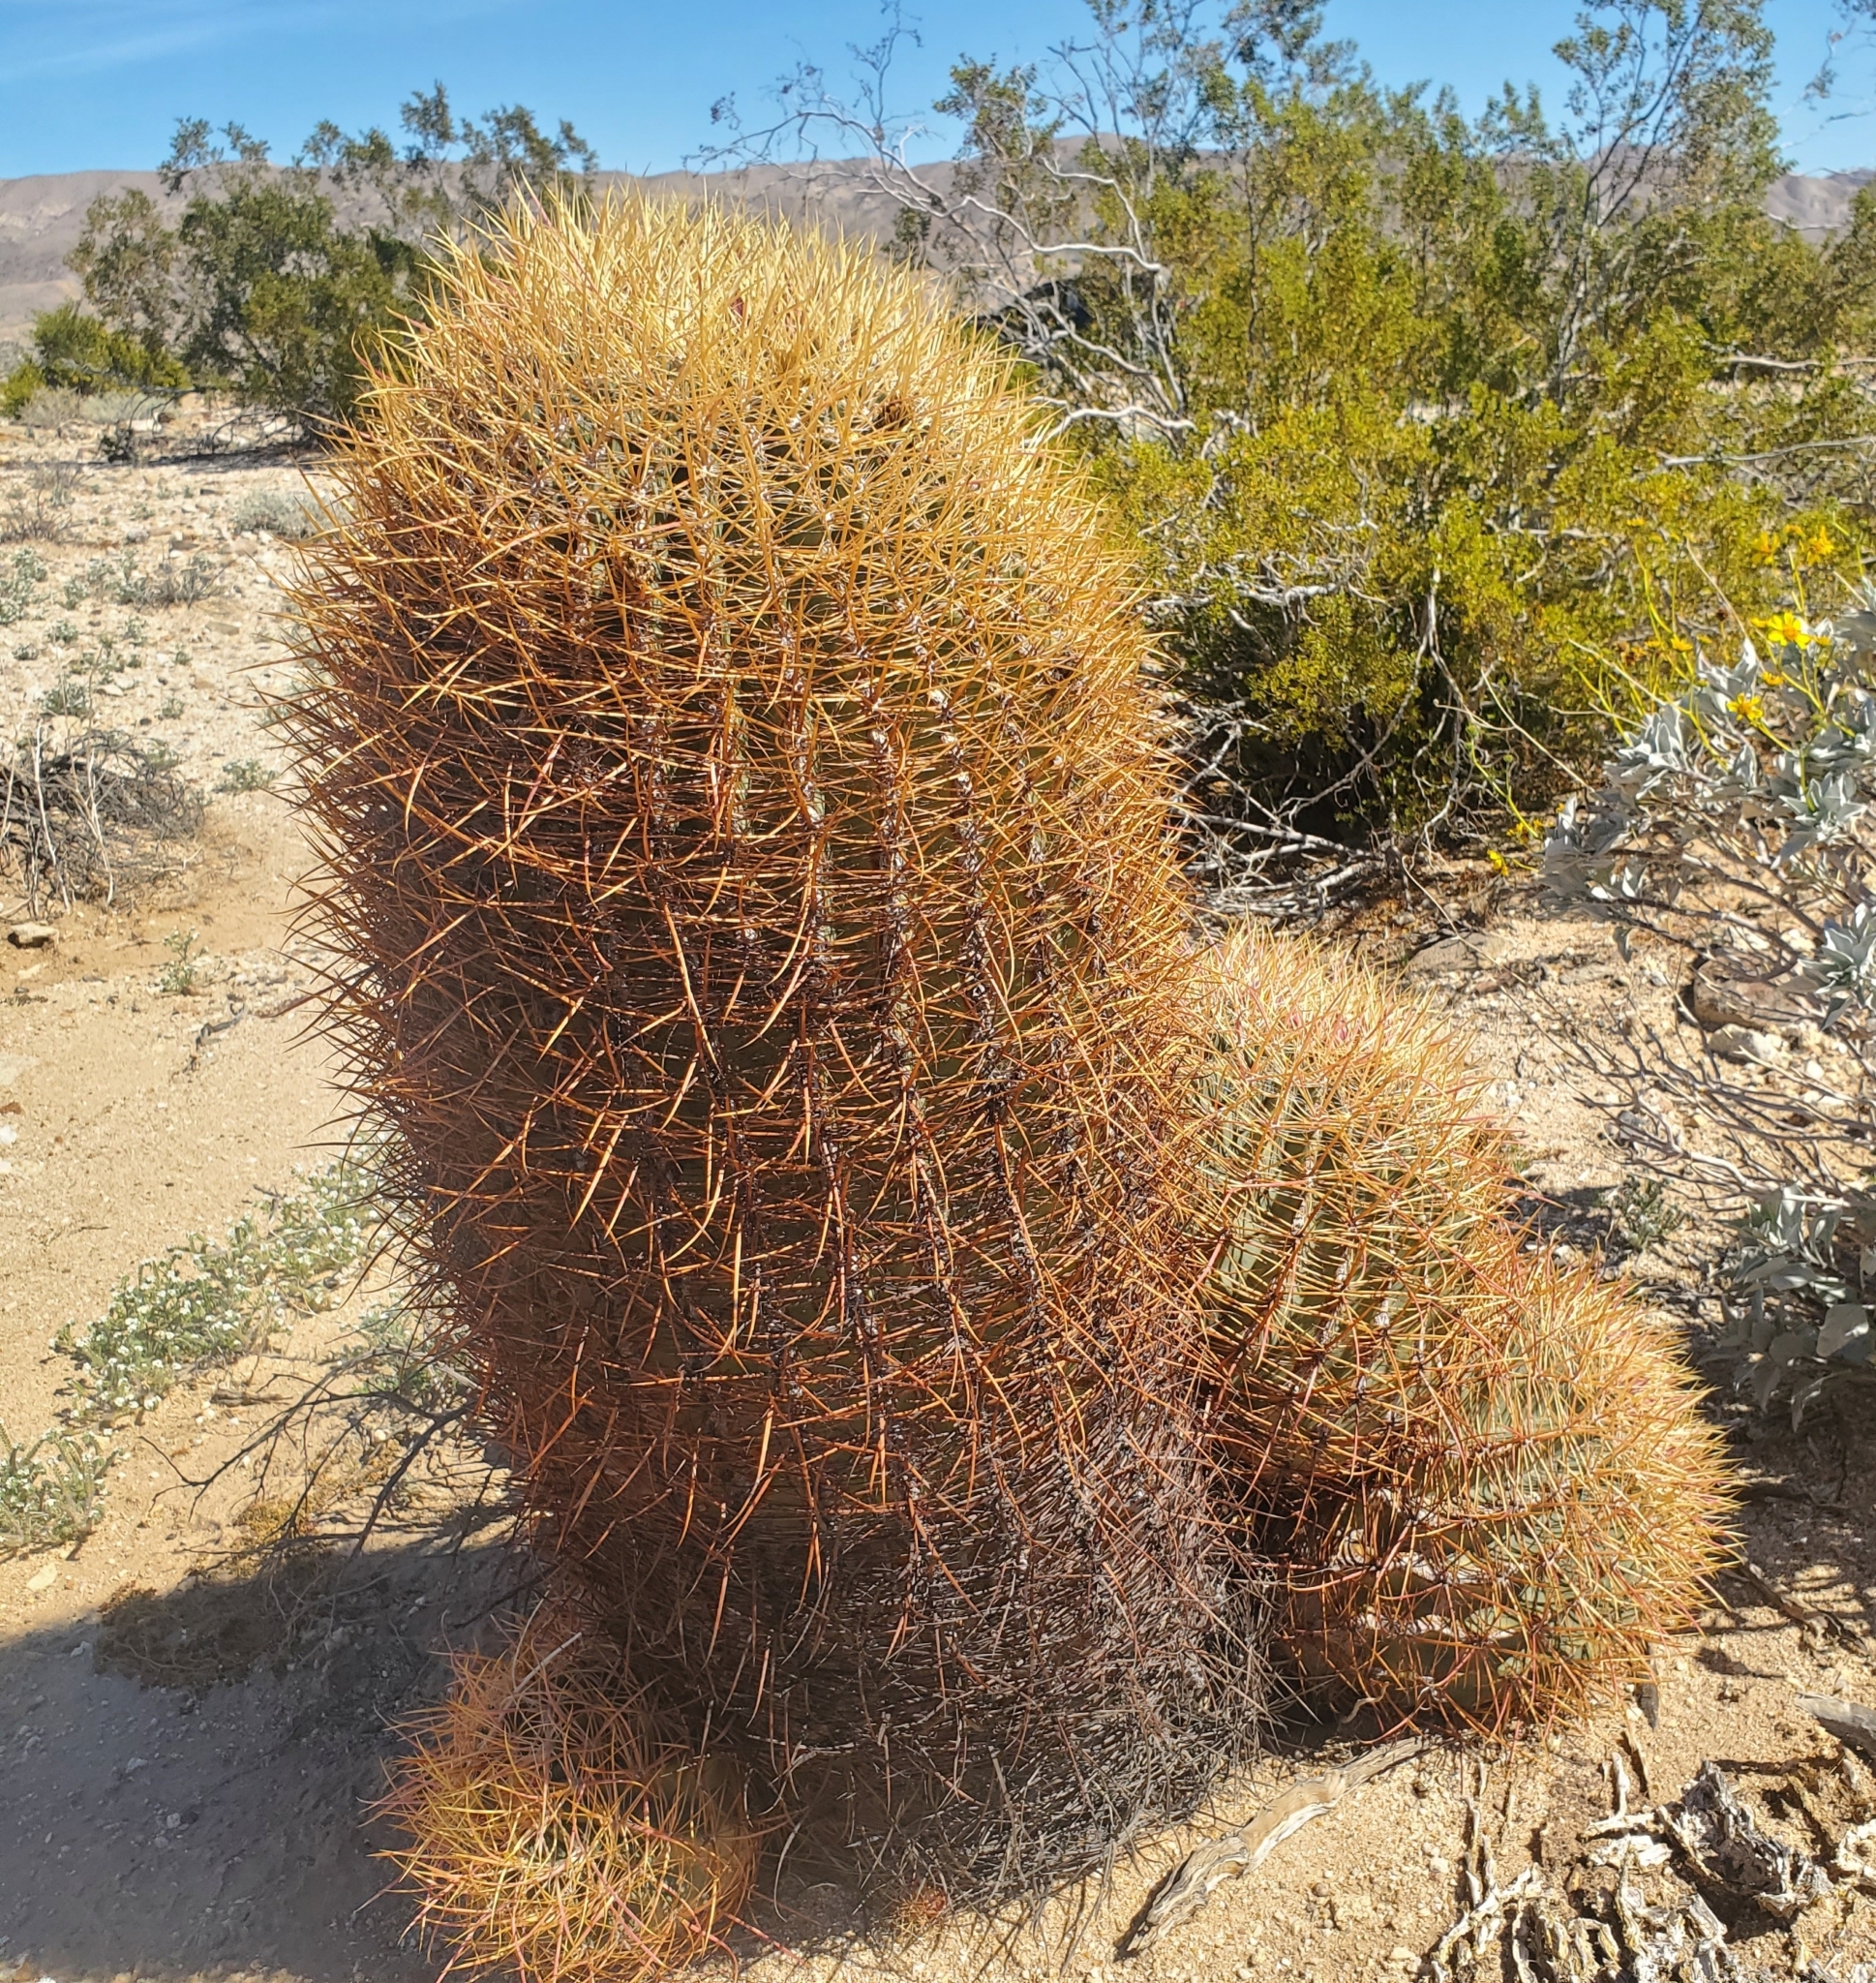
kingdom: Plantae
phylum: Tracheophyta
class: Magnoliopsida
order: Caryophyllales
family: Cactaceae
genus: Ferocactus
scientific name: Ferocactus cylindraceus
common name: California barrel cactus
